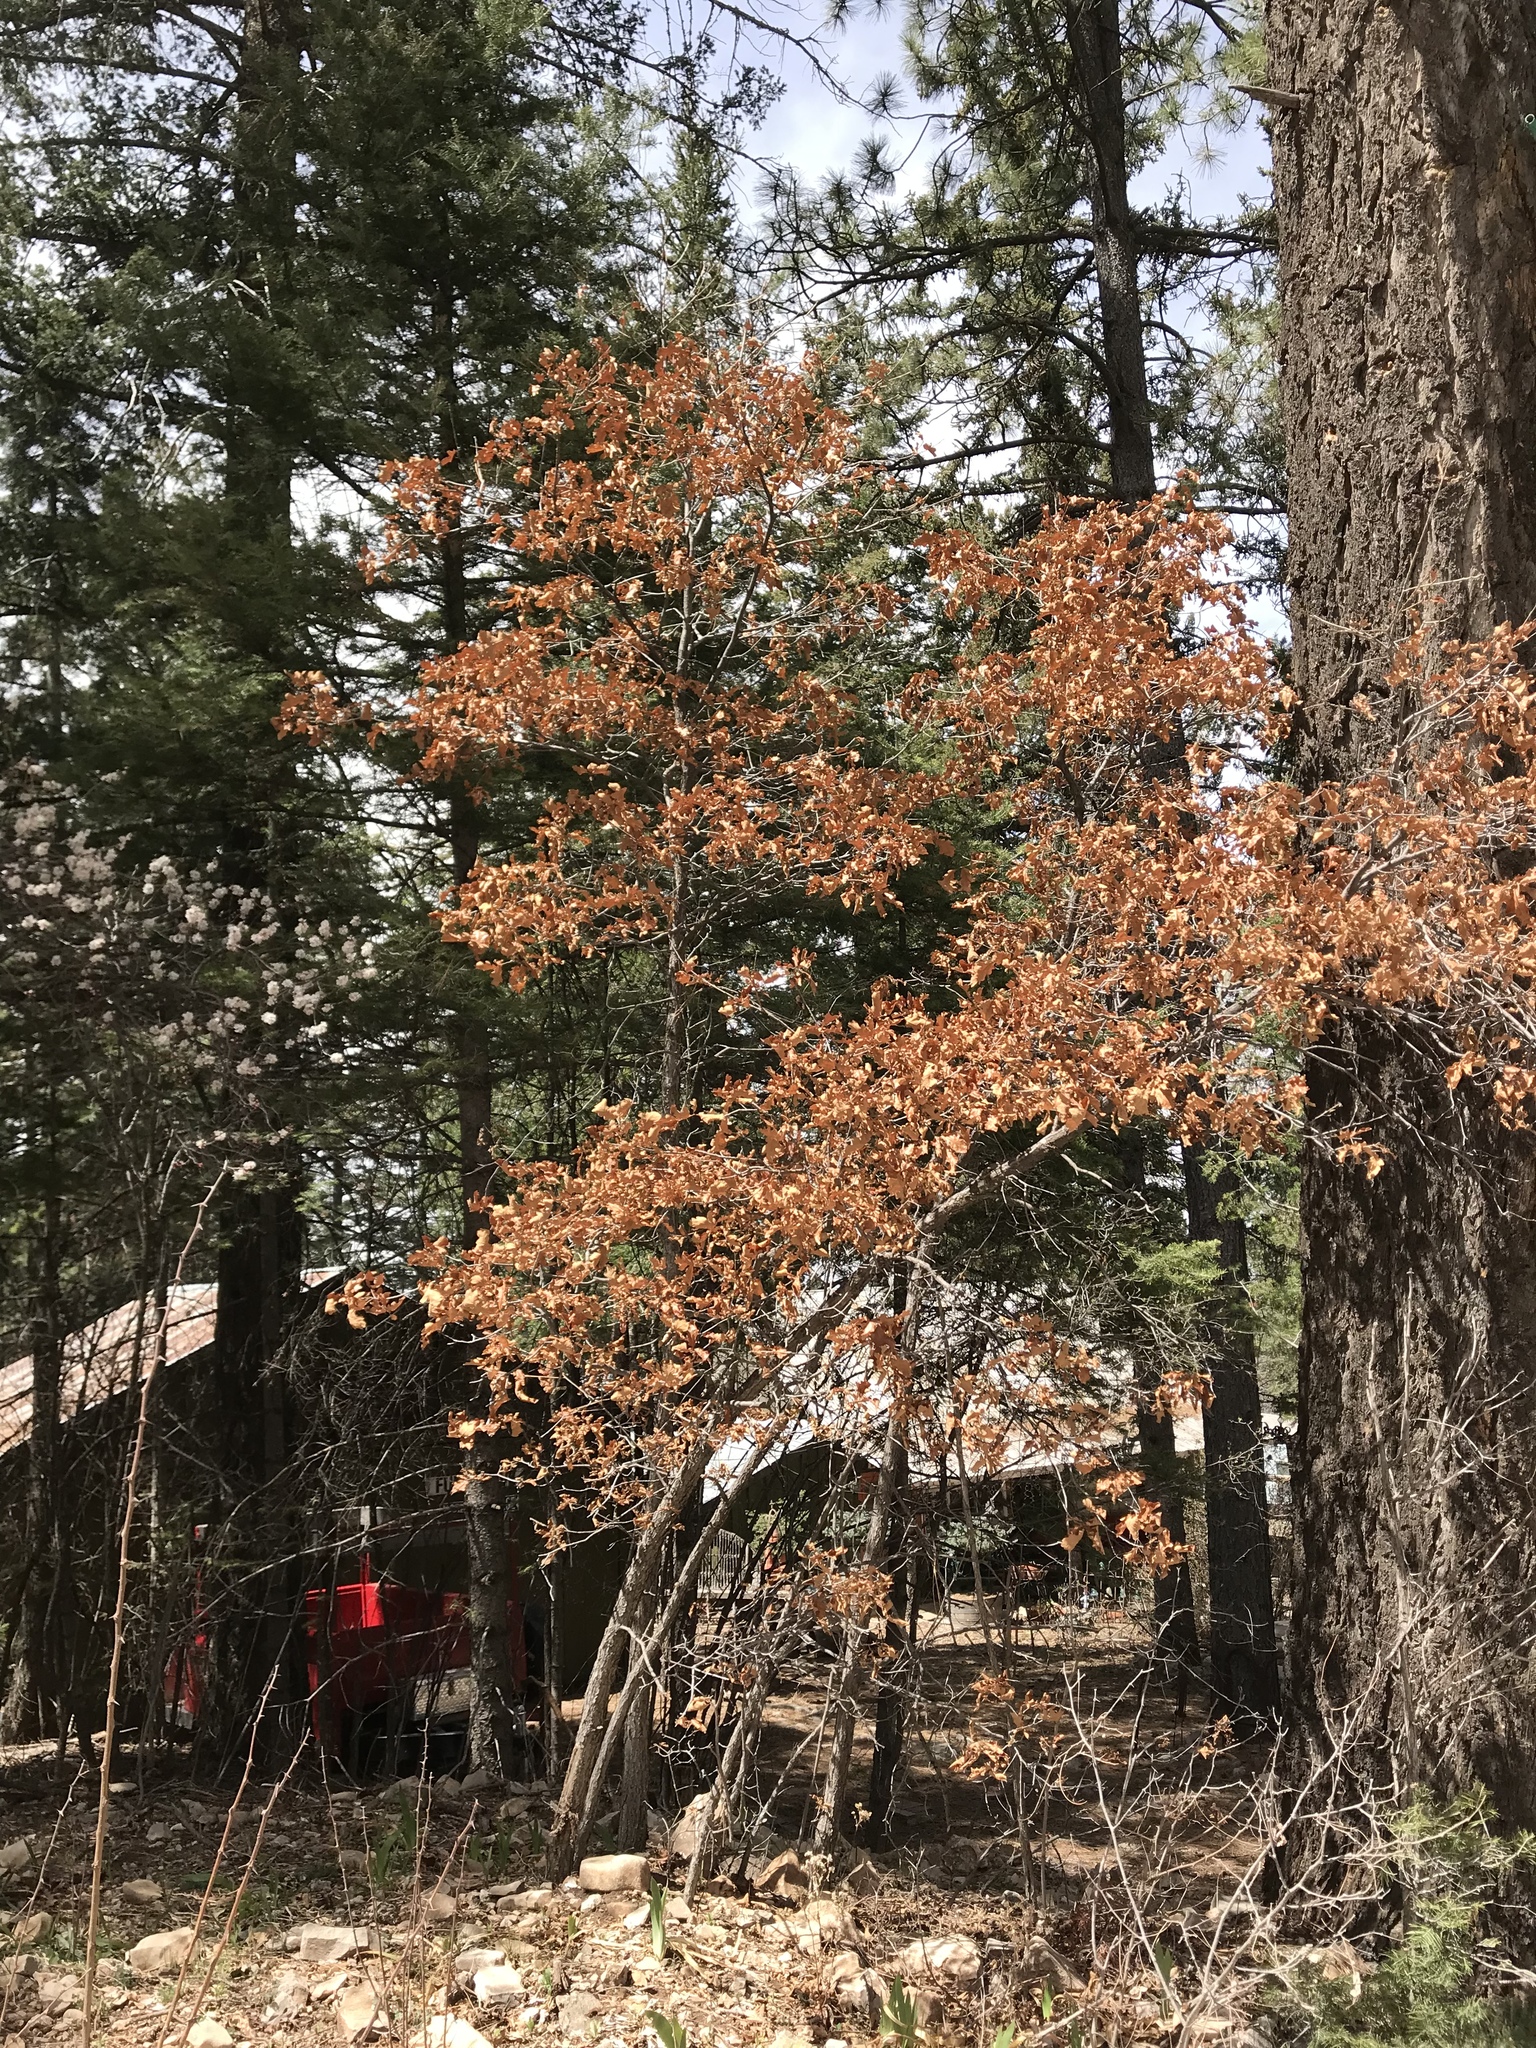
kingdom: Plantae
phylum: Tracheophyta
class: Magnoliopsida
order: Fagales
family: Fagaceae
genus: Quercus
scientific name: Quercus gambelii
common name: Gambel oak
